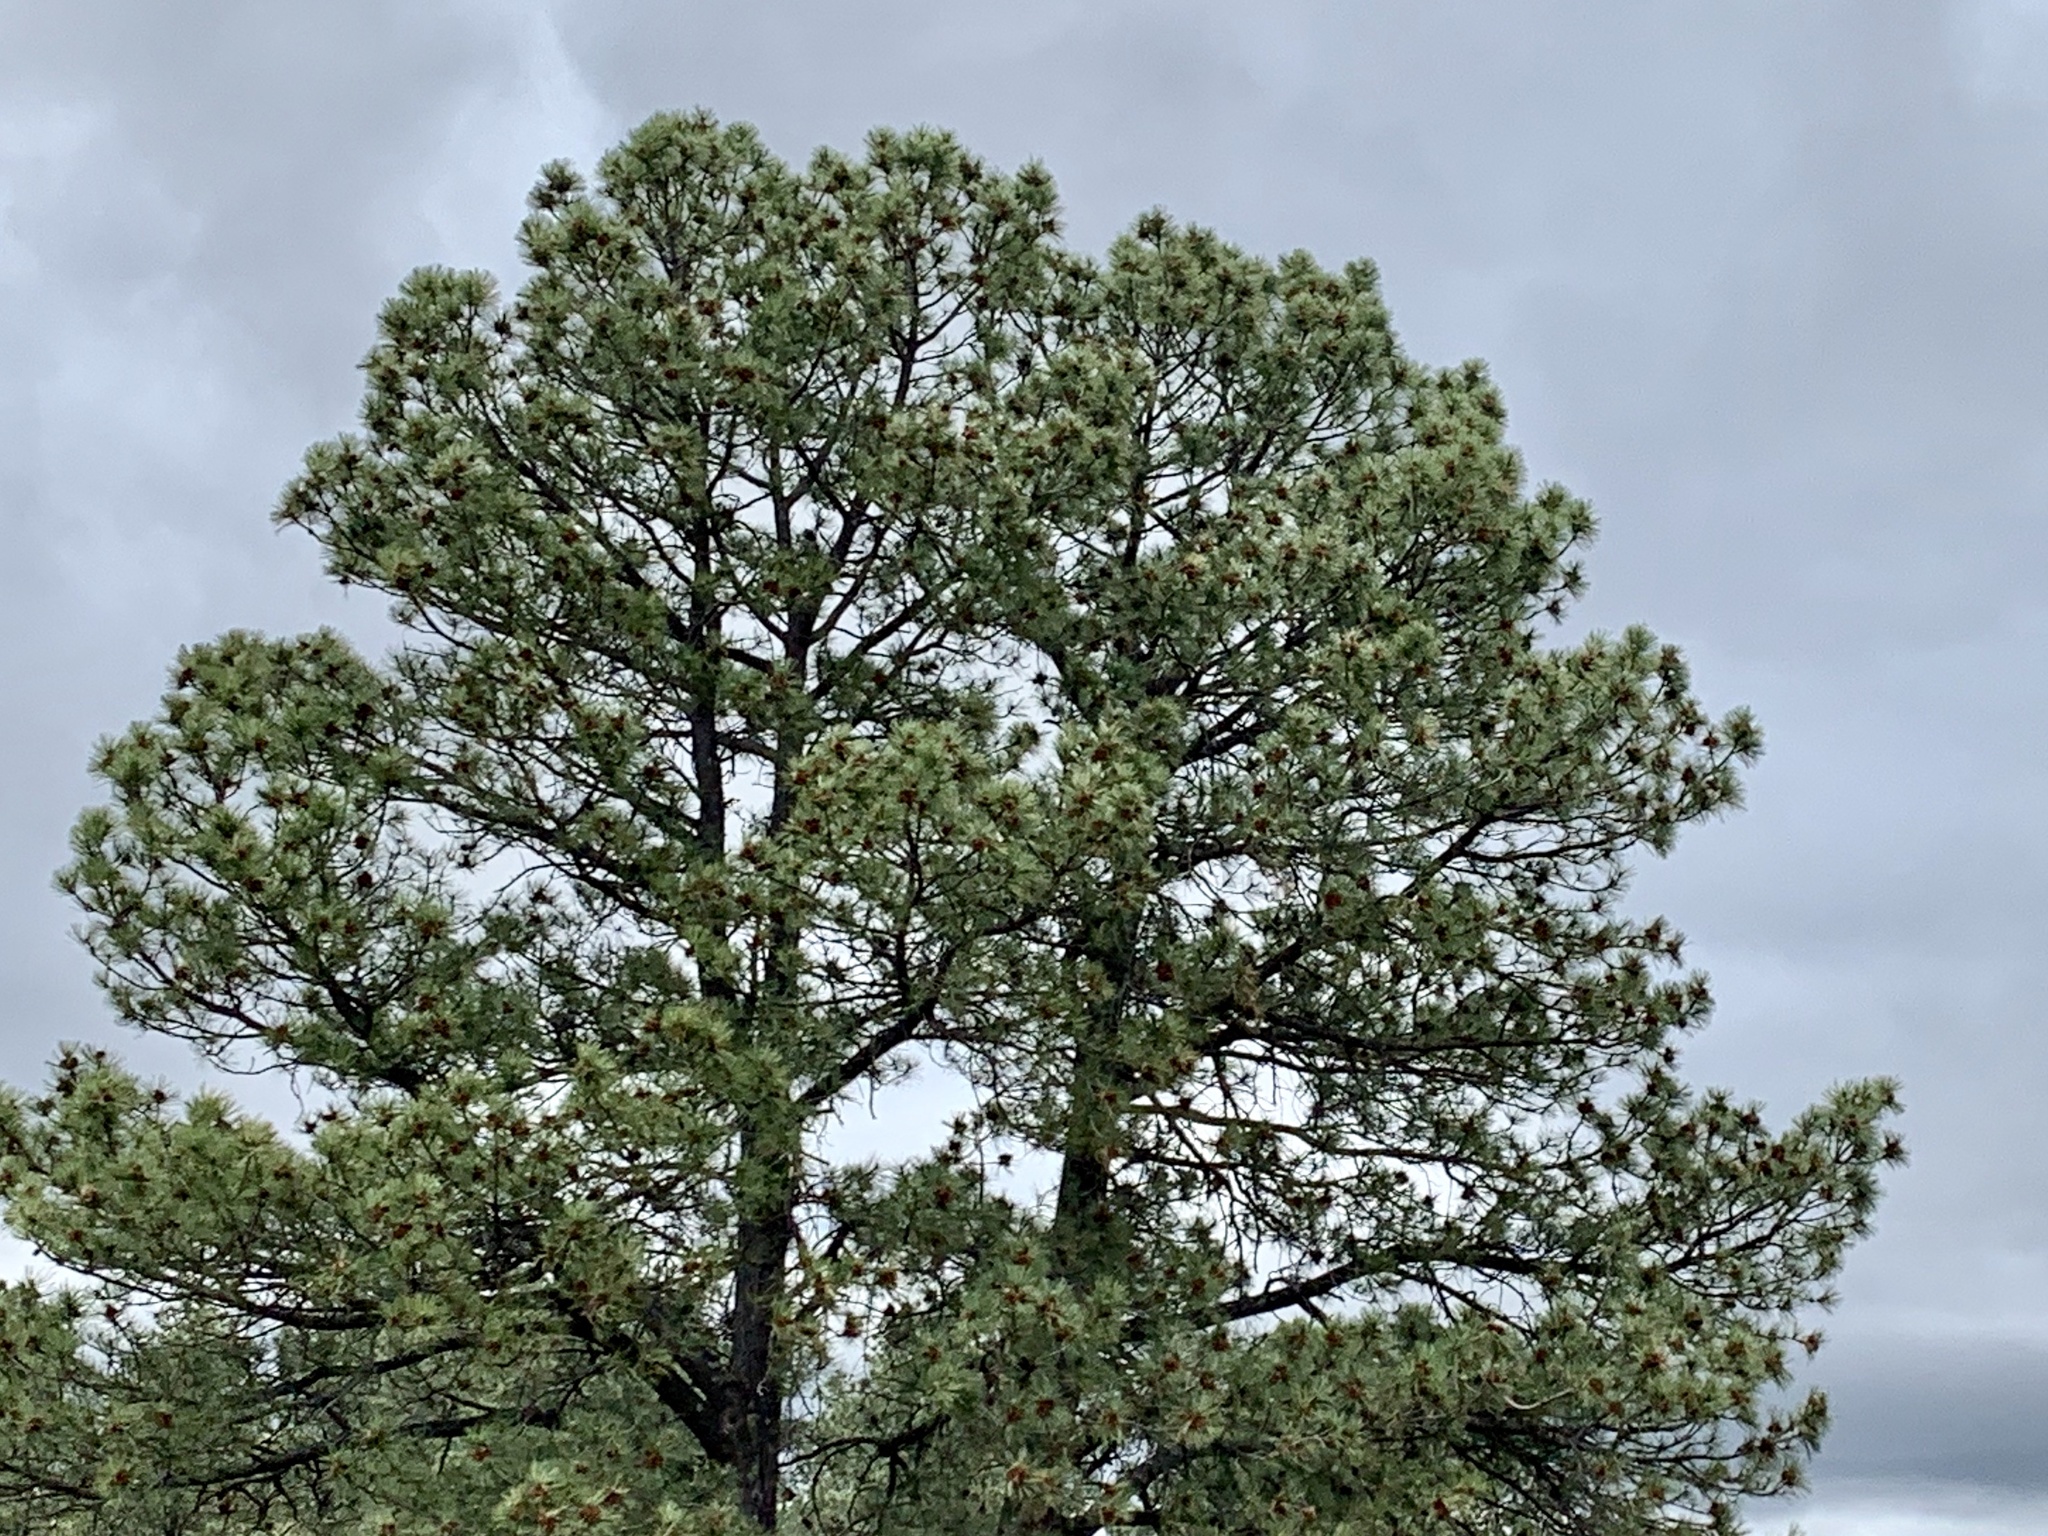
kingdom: Plantae
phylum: Tracheophyta
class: Pinopsida
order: Pinales
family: Pinaceae
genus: Pinus
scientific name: Pinus ponderosa
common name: Western yellow-pine
